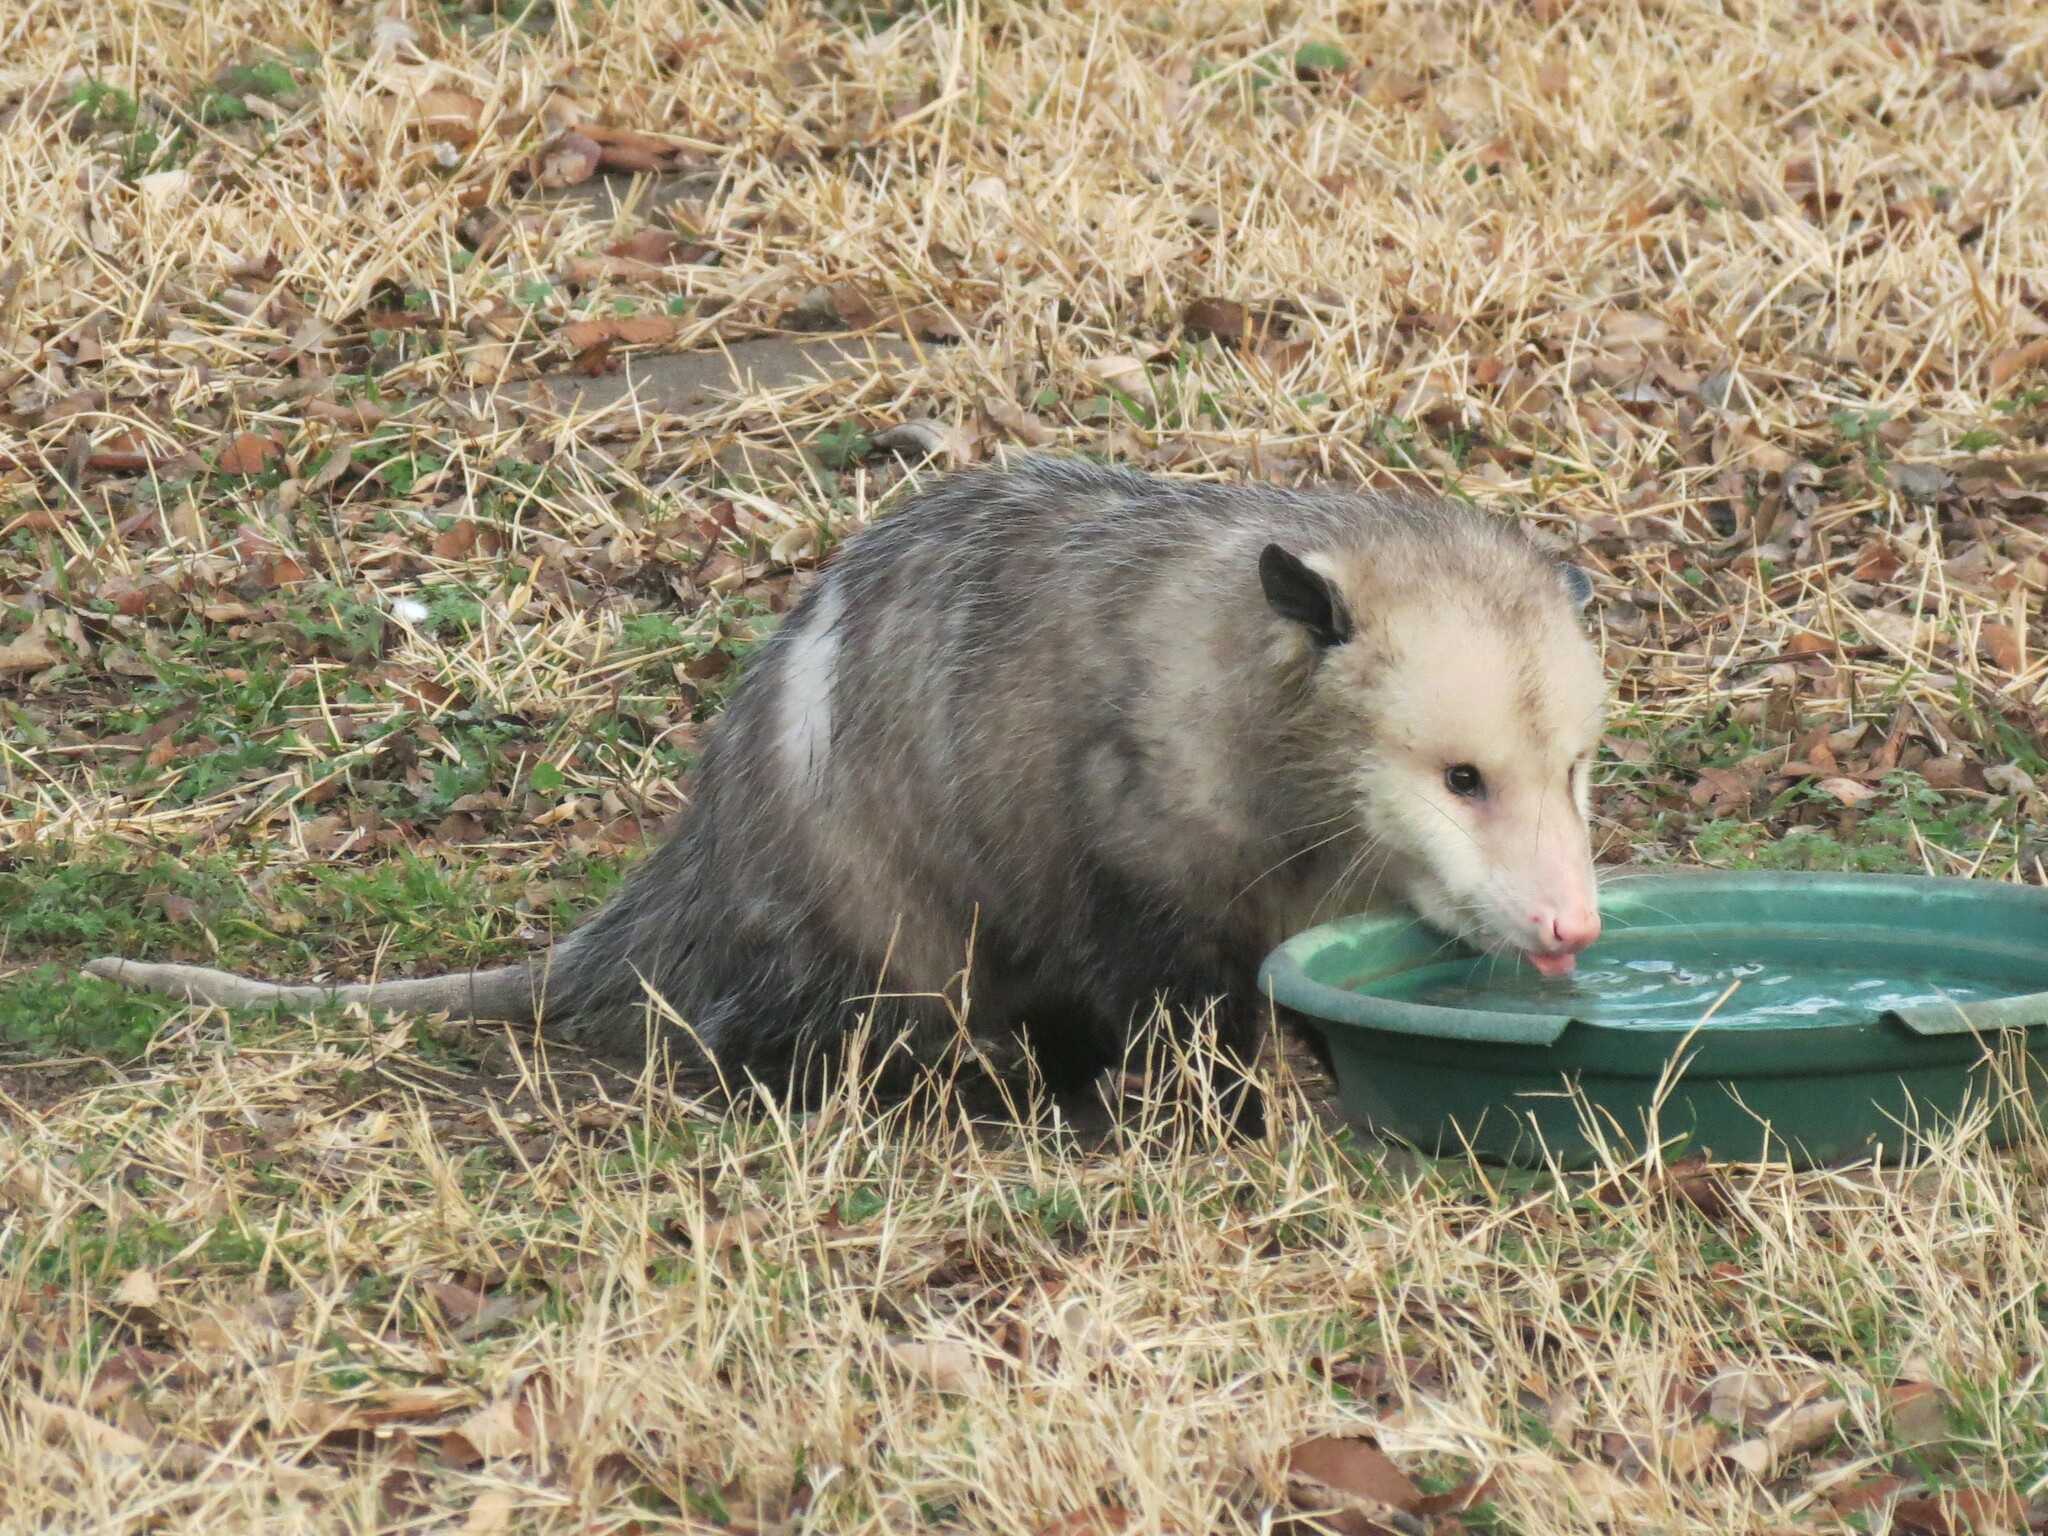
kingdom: Animalia
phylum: Chordata
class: Mammalia
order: Didelphimorphia
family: Didelphidae
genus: Didelphis
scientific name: Didelphis virginiana
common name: Virginia opossum
